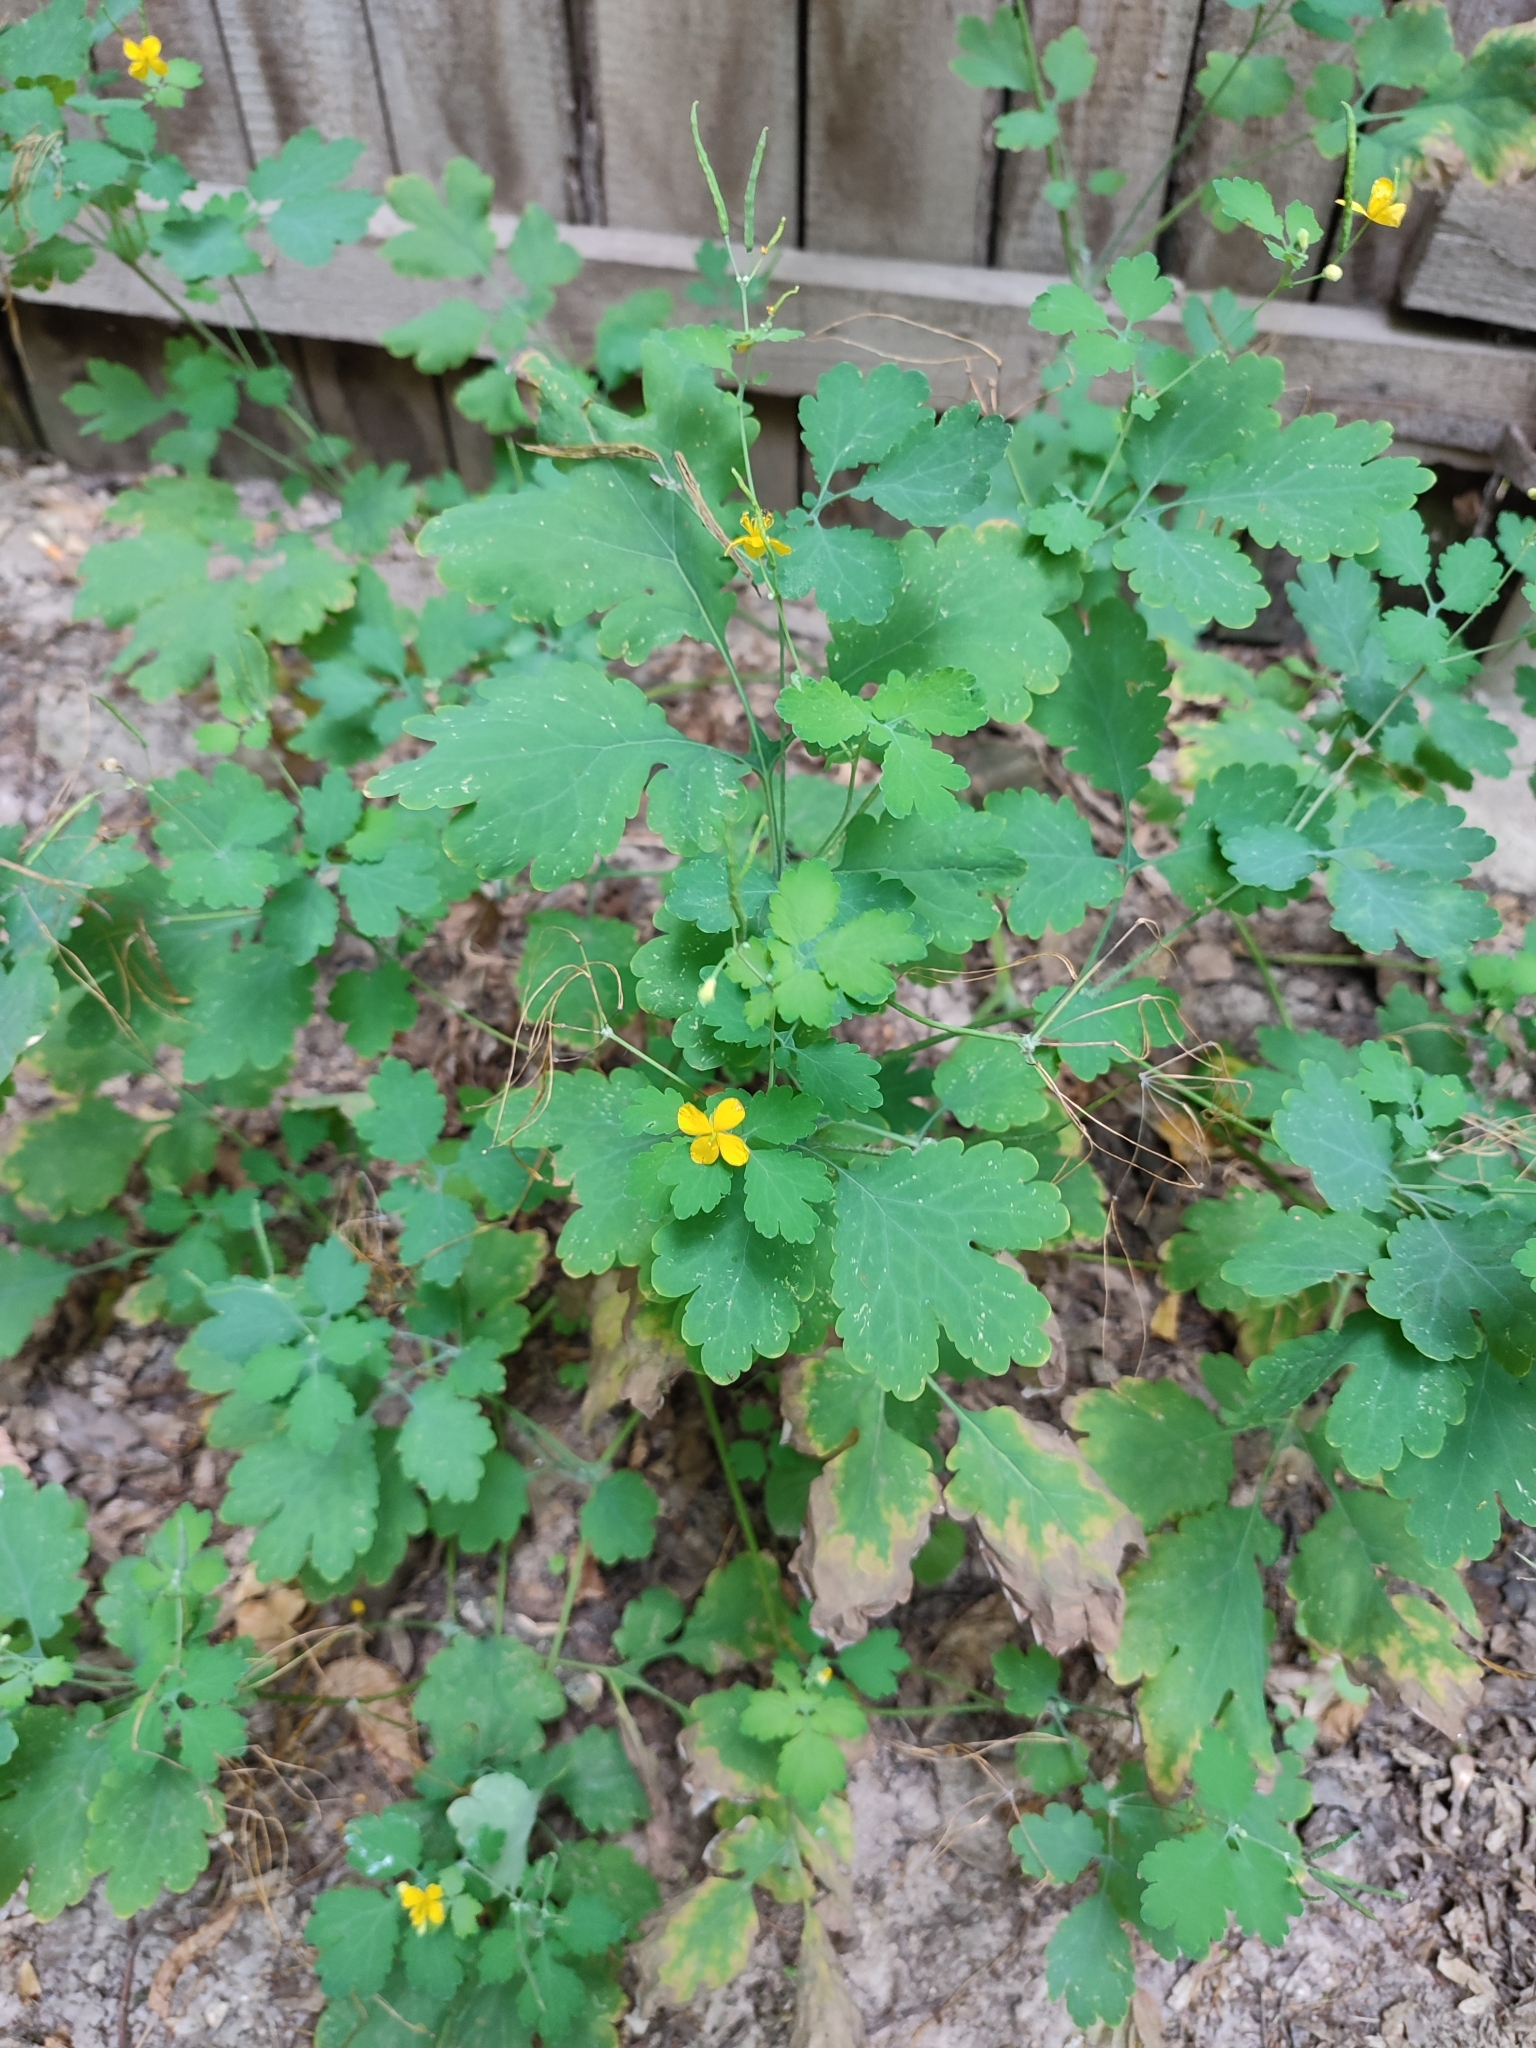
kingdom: Plantae
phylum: Tracheophyta
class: Magnoliopsida
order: Ranunculales
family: Papaveraceae
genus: Chelidonium
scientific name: Chelidonium majus
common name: Greater celandine
